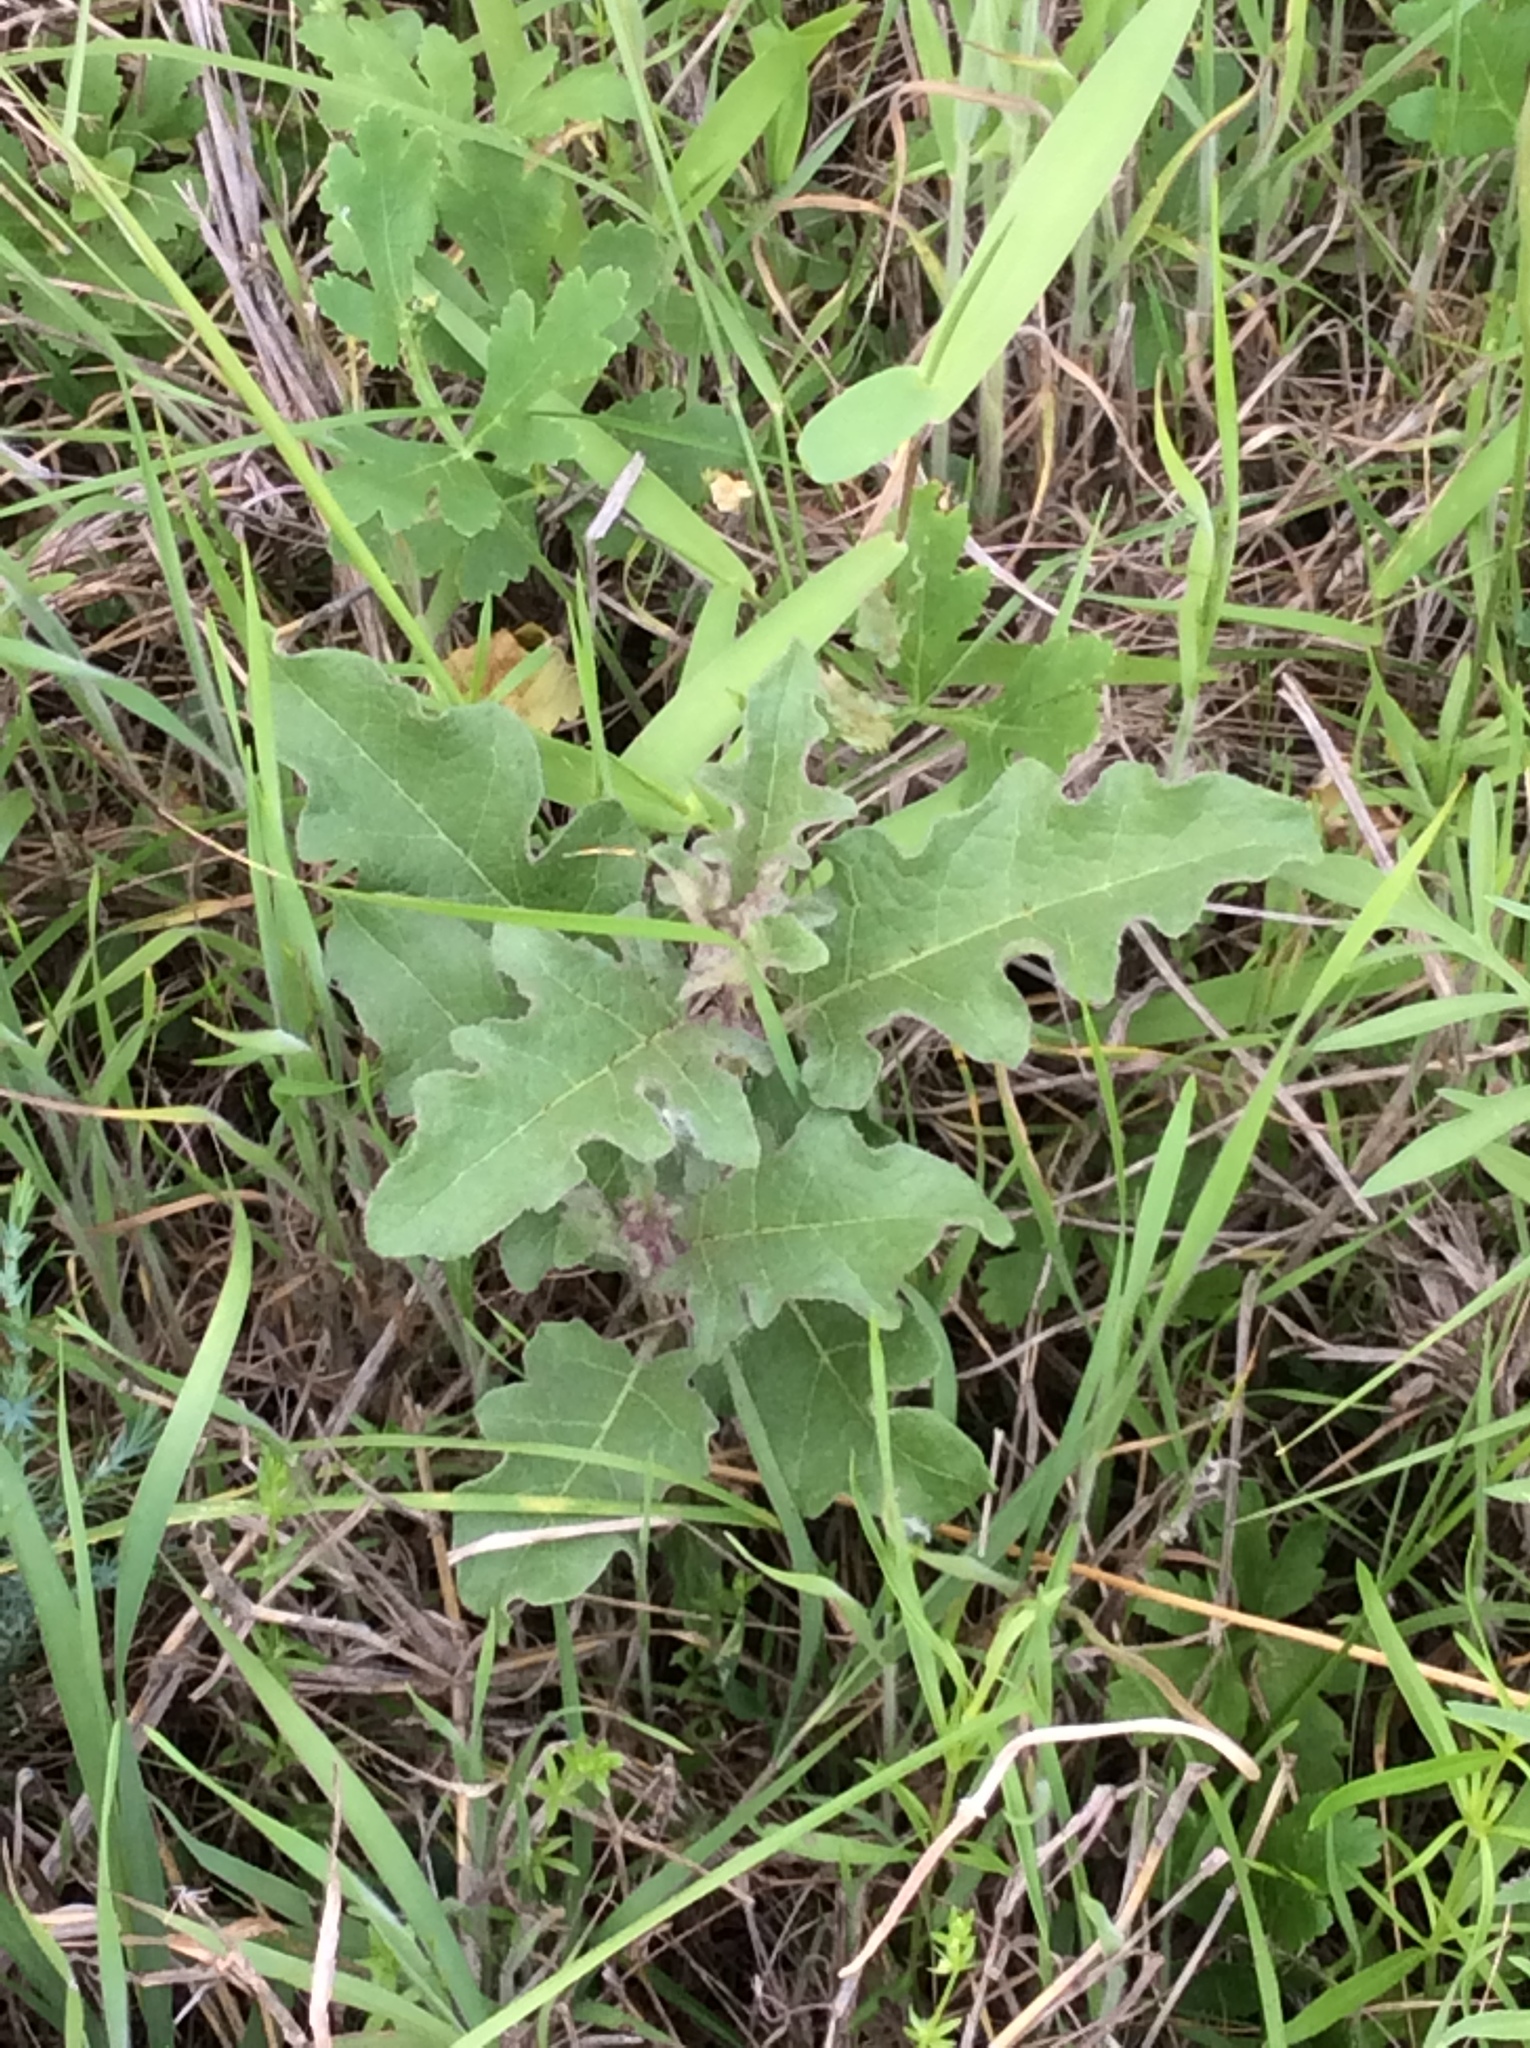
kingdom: Plantae
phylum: Tracheophyta
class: Magnoliopsida
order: Solanales
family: Solanaceae
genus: Solanum
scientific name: Solanum dimidiatum
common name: Carolina horse-nettle
